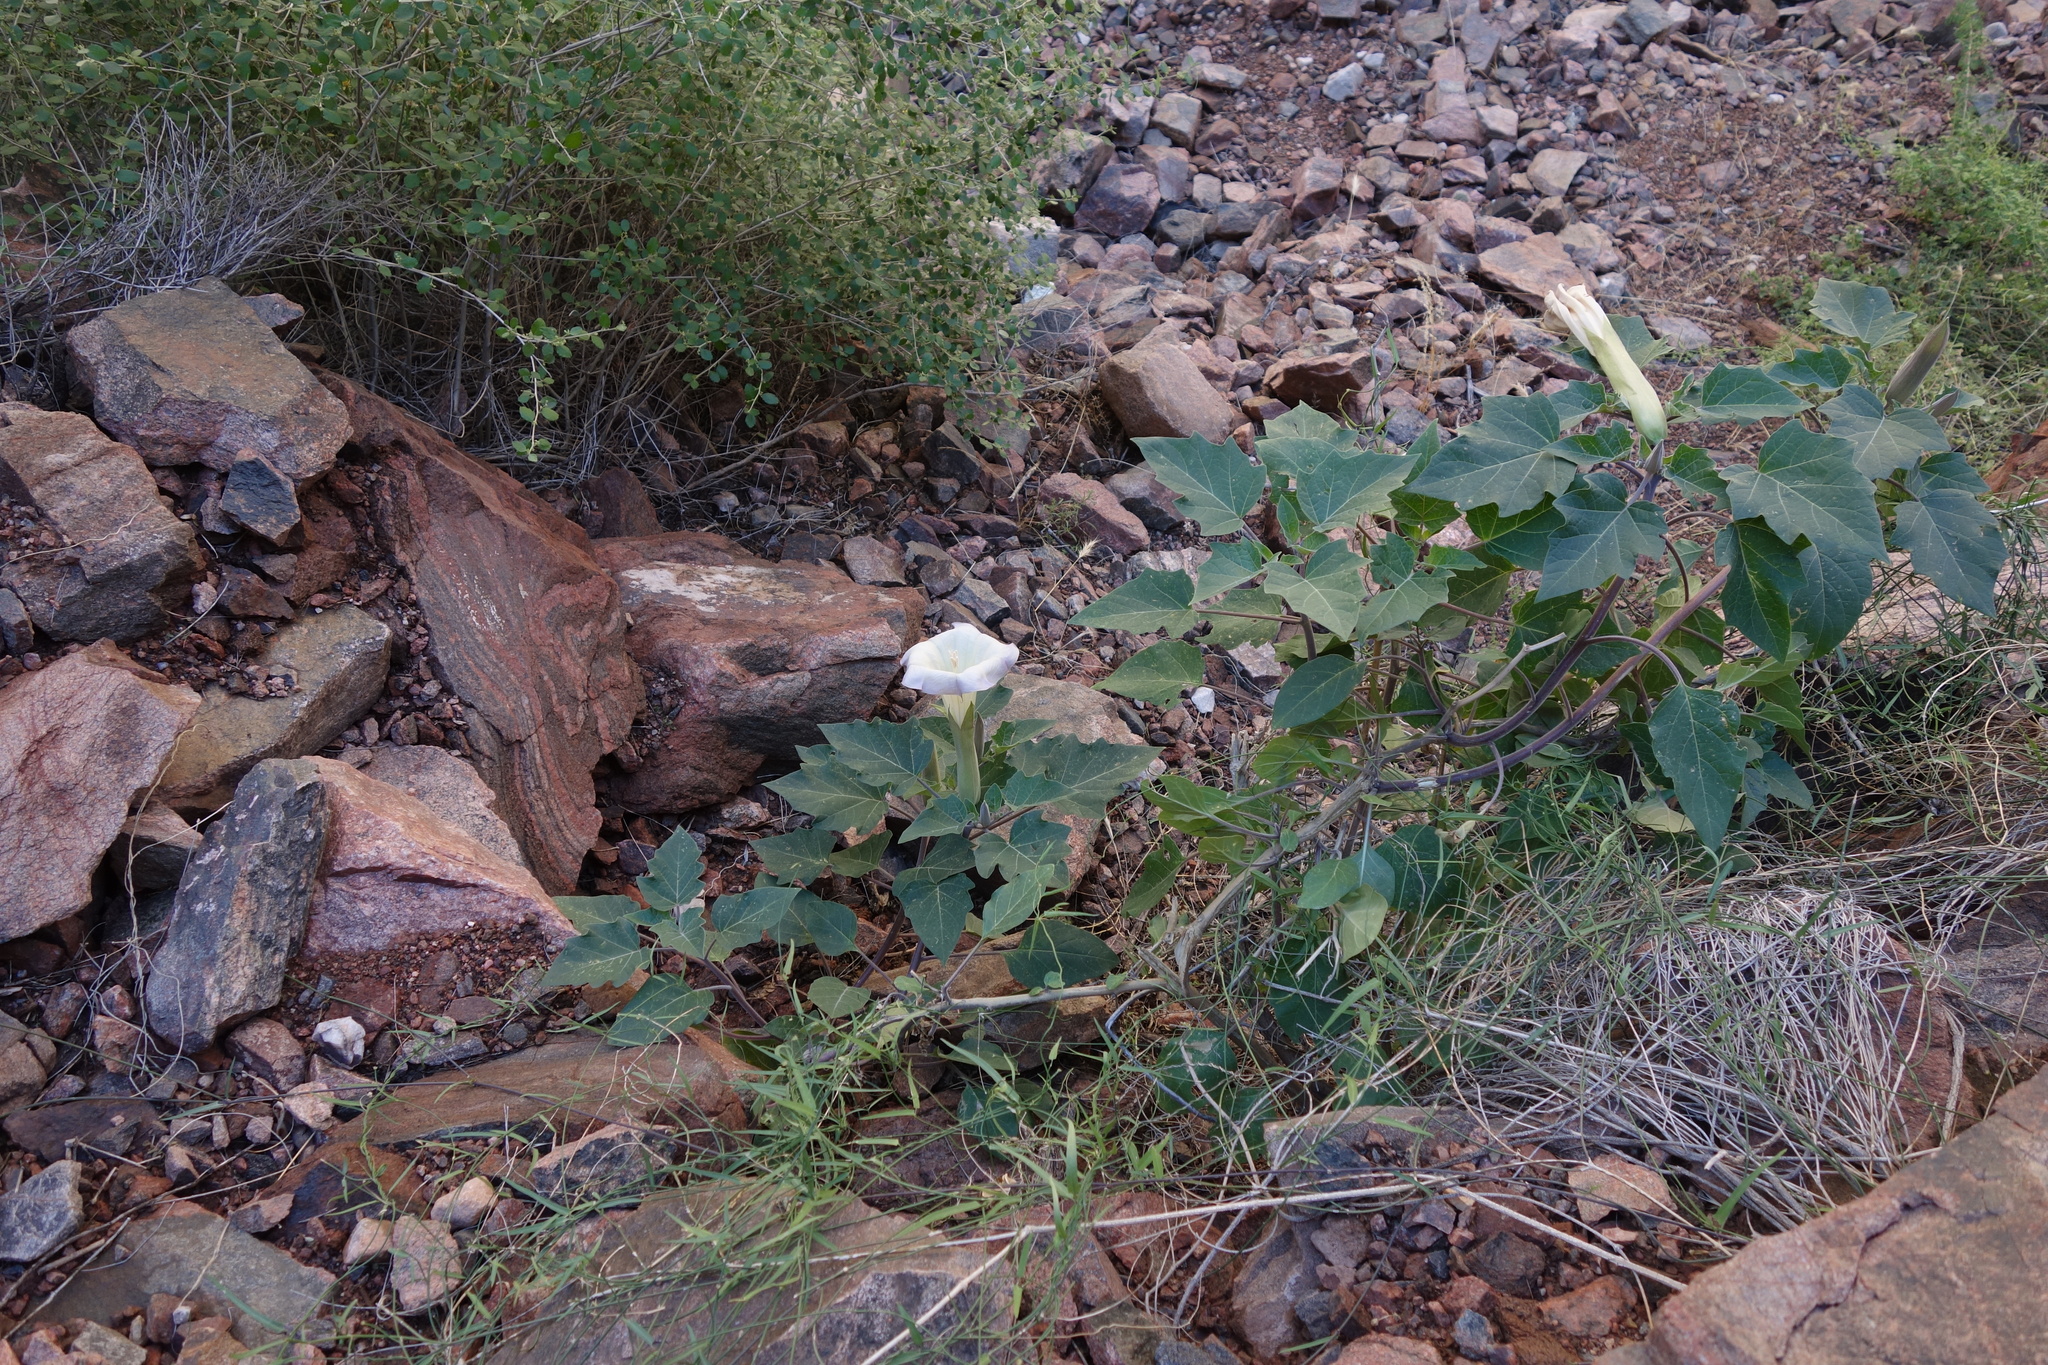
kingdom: Plantae
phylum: Tracheophyta
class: Magnoliopsida
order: Solanales
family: Solanaceae
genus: Datura
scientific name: Datura wrightii
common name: Sacred thorn-apple
